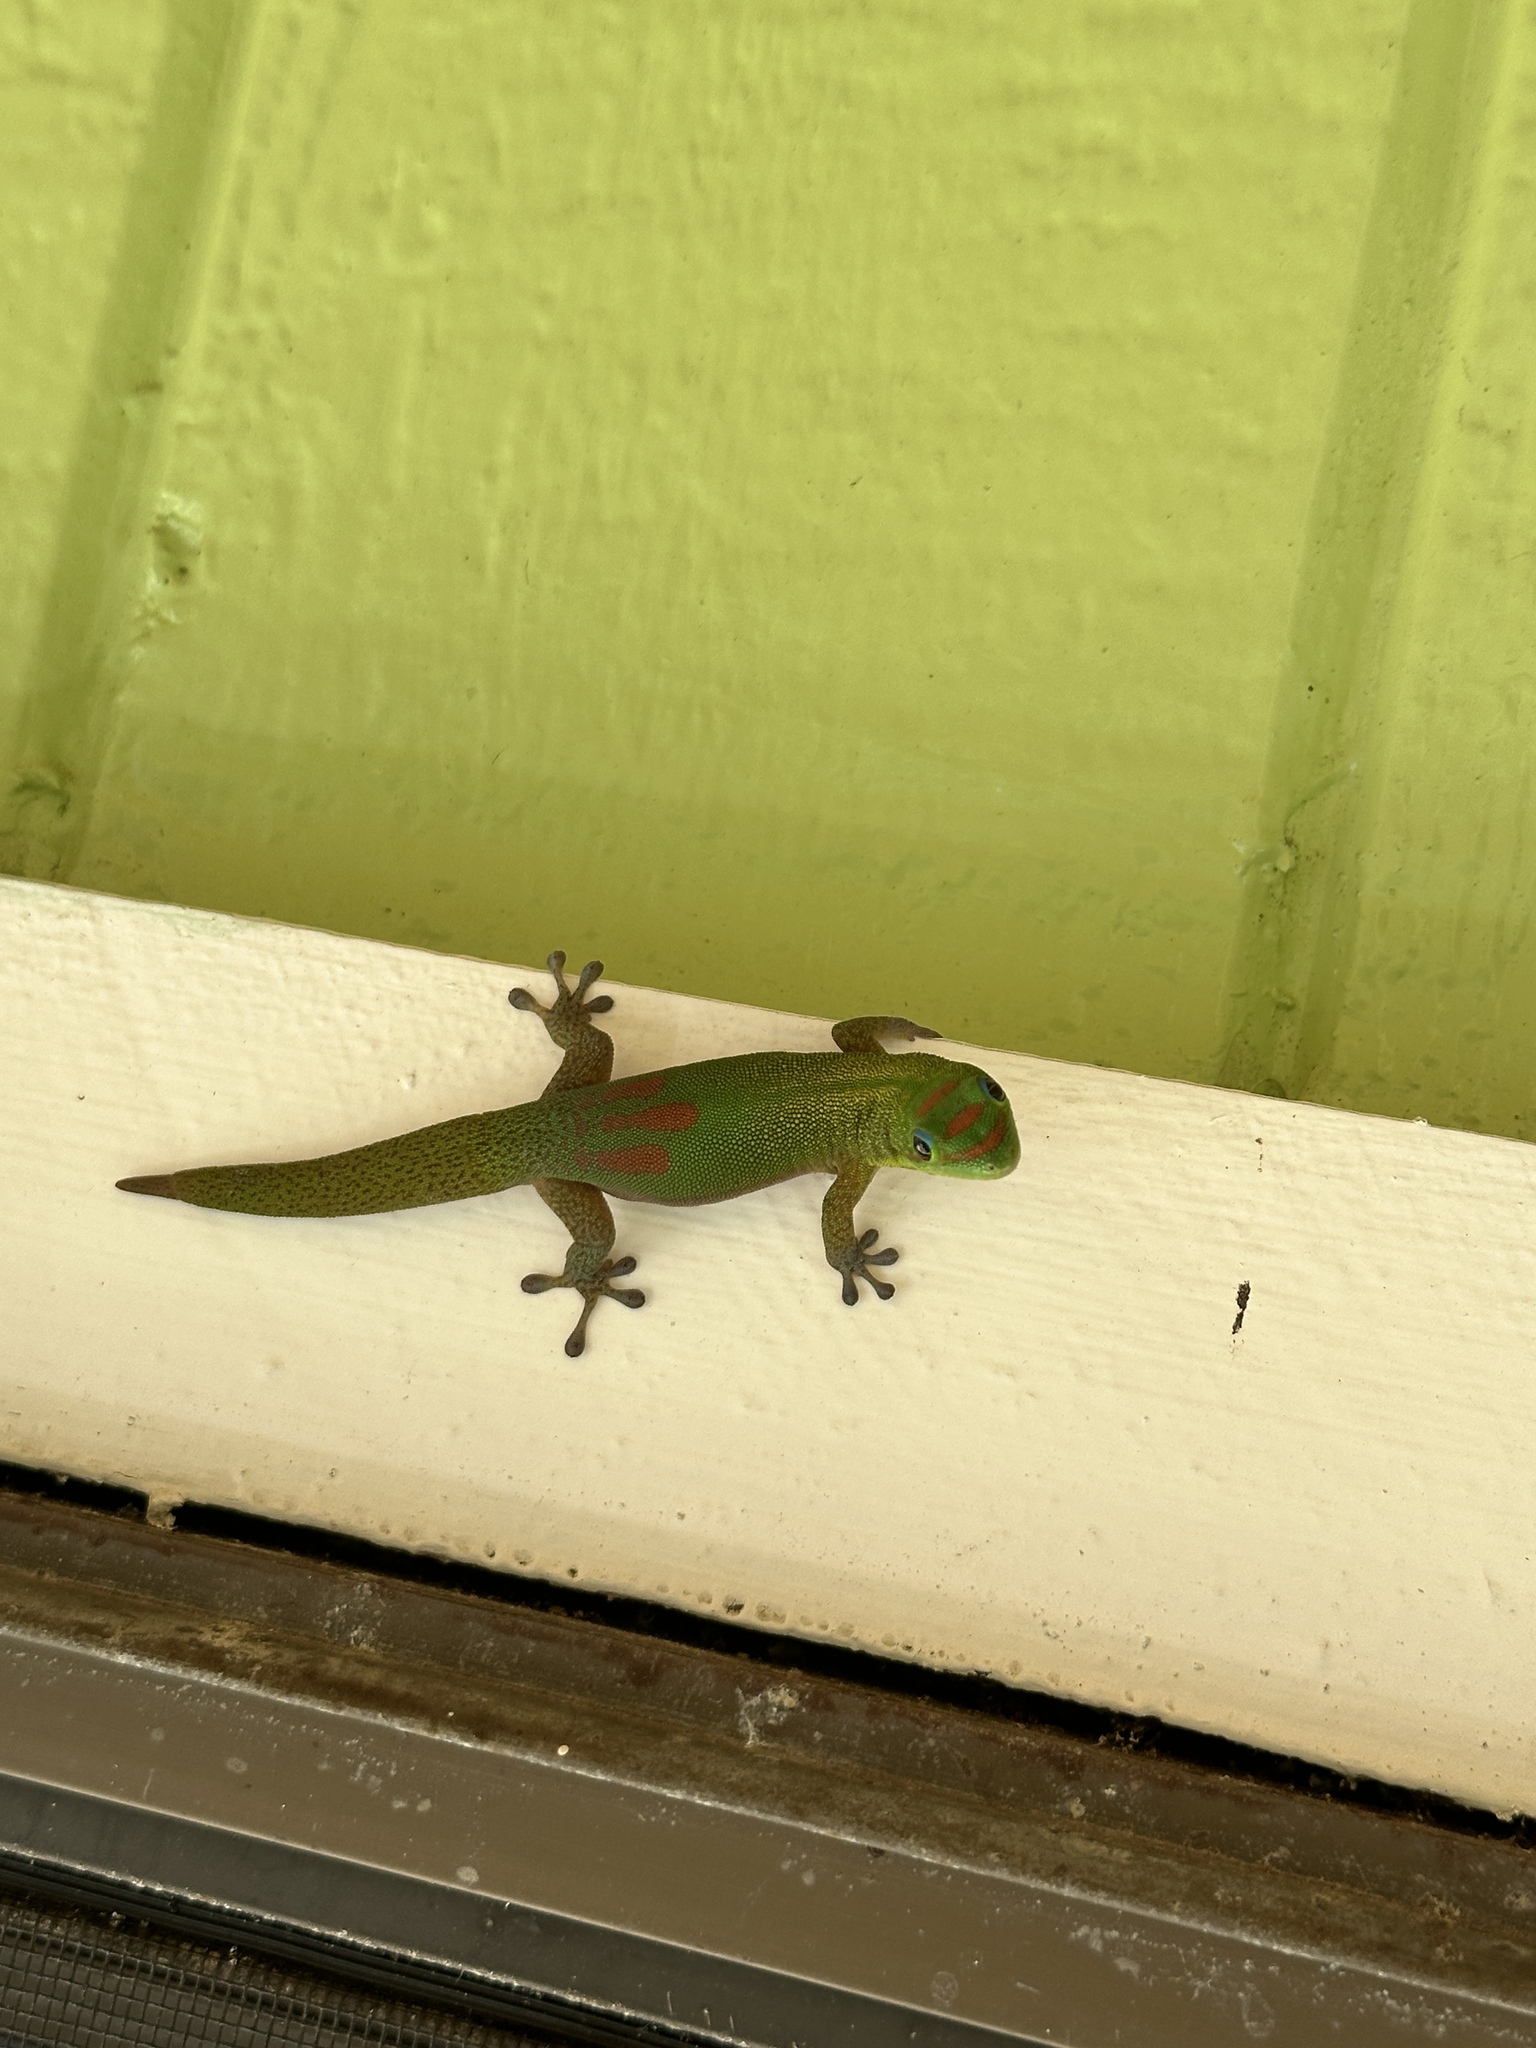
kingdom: Animalia
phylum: Chordata
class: Squamata
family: Gekkonidae
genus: Phelsuma
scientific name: Phelsuma laticauda
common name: Gold dust day gecko
